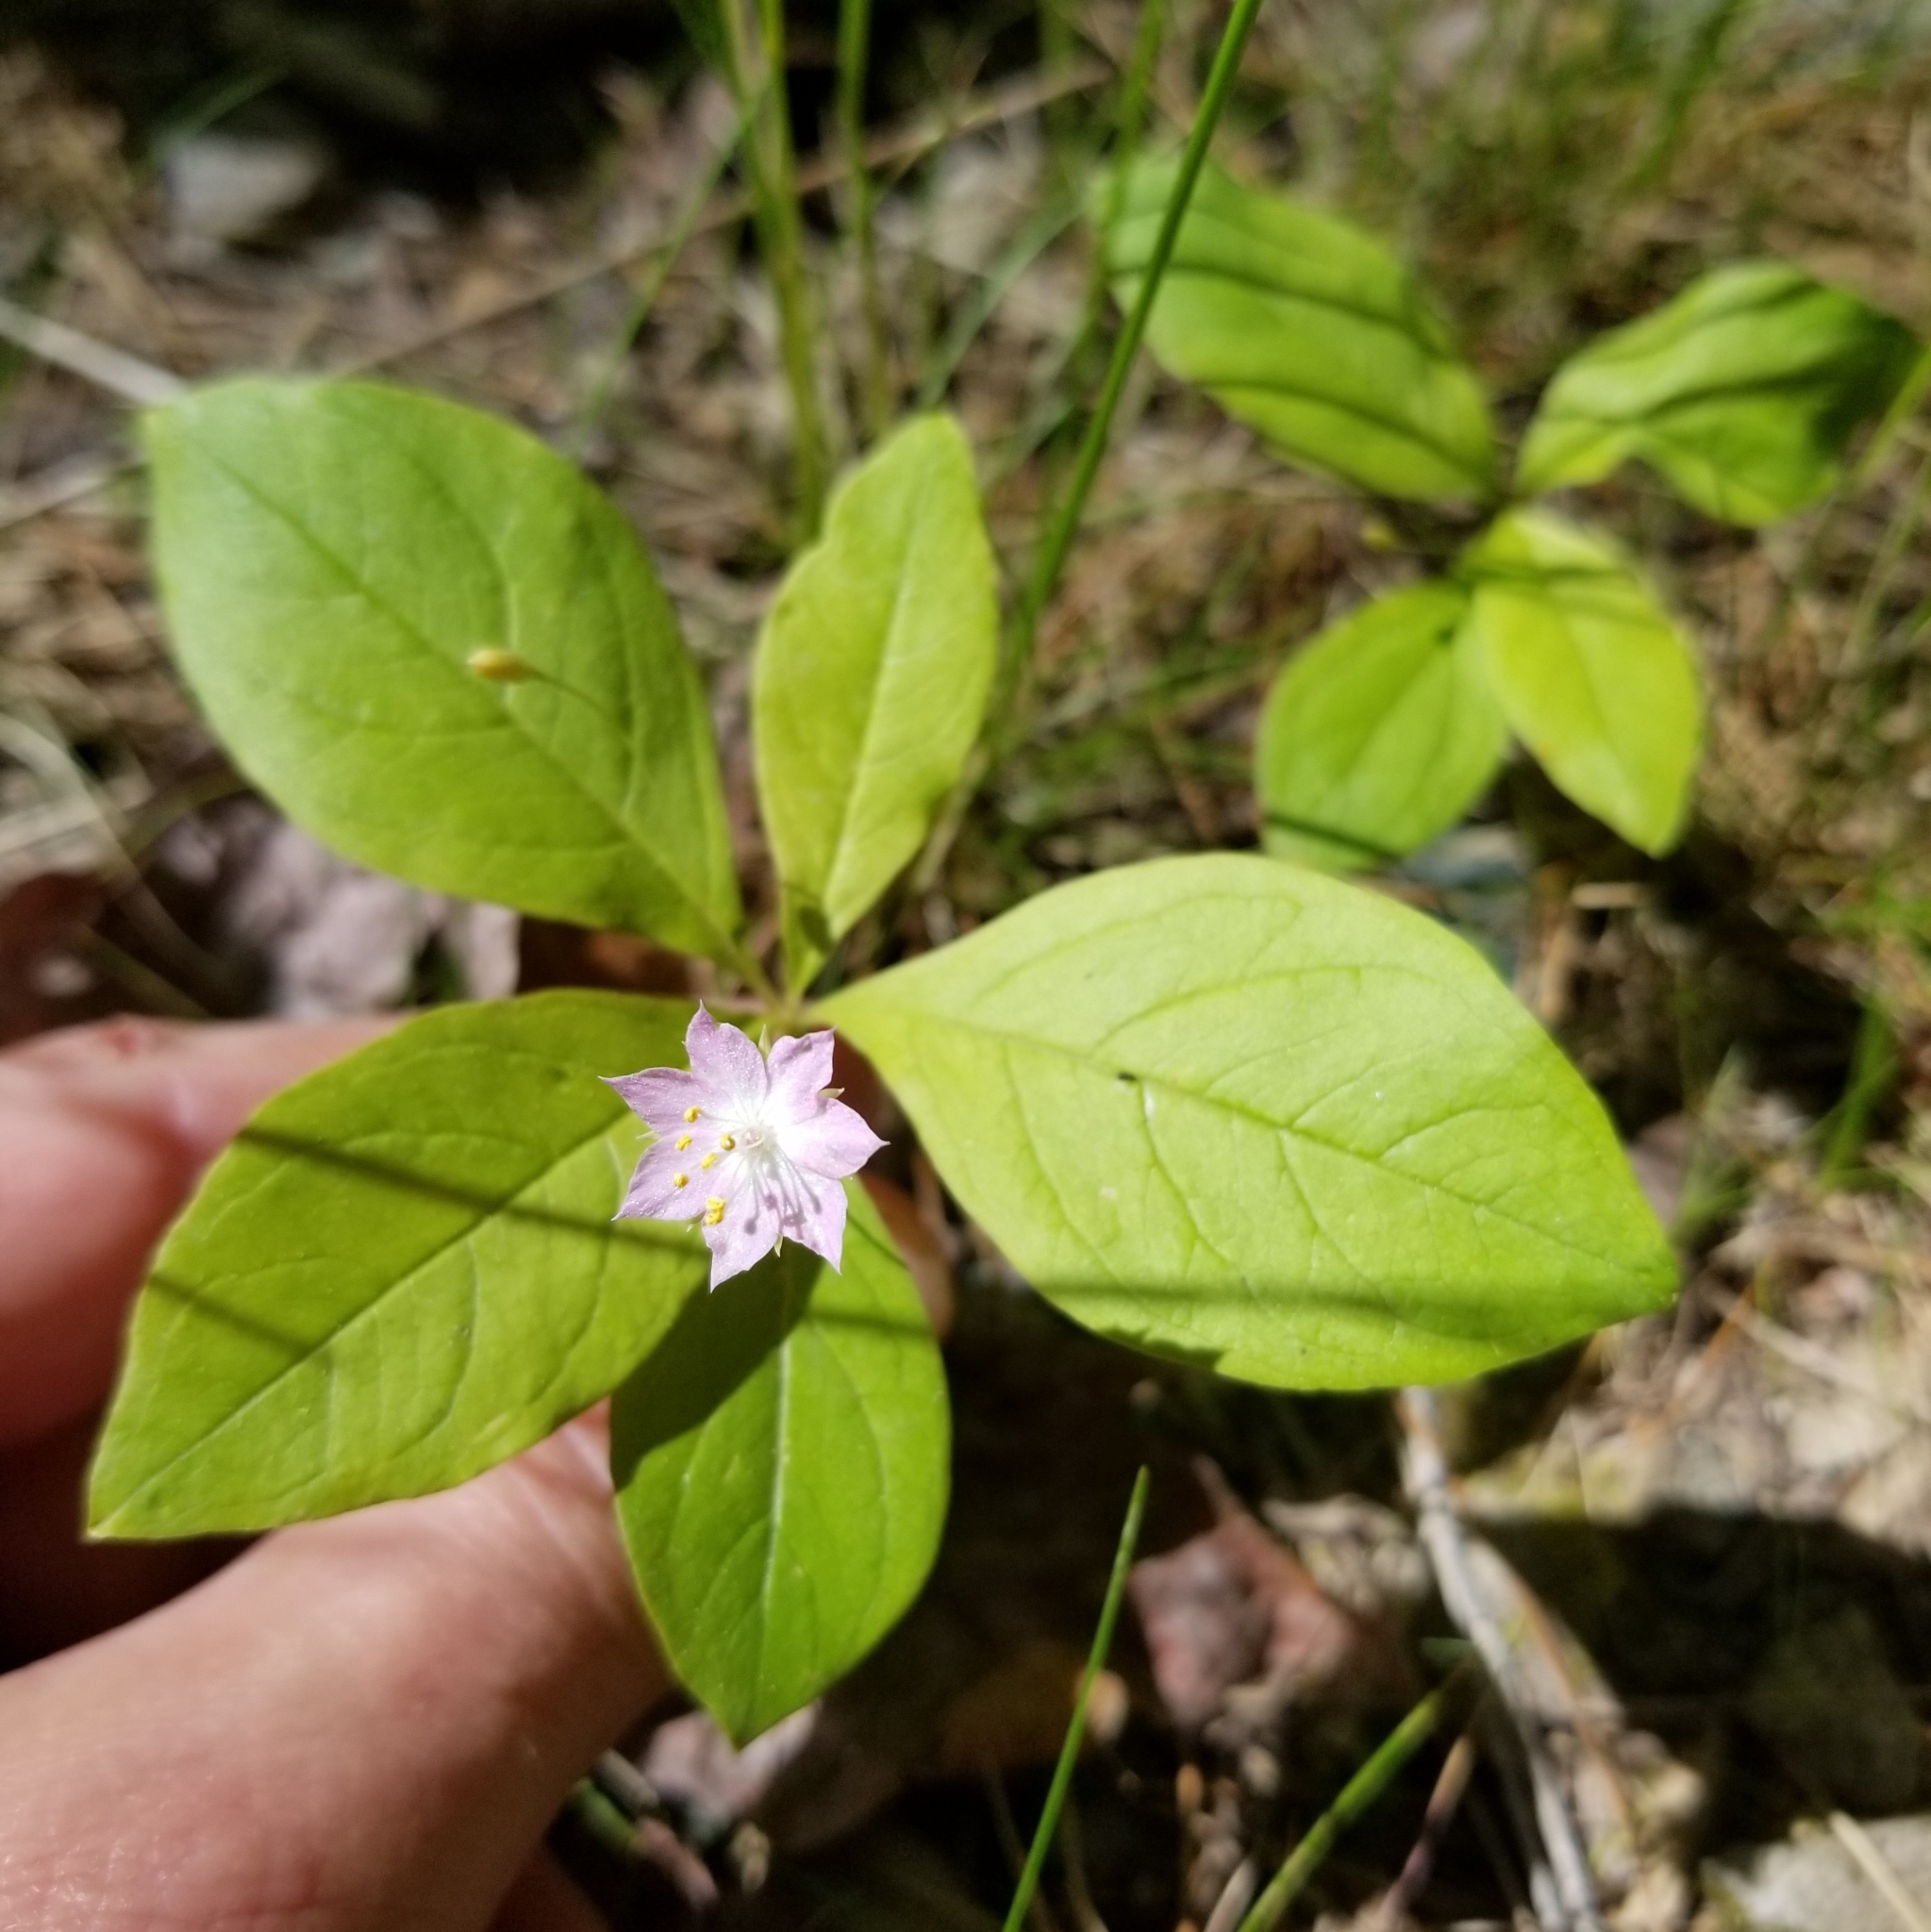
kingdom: Plantae
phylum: Tracheophyta
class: Magnoliopsida
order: Ericales
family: Primulaceae
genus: Lysimachia
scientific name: Lysimachia latifolia
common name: Pacific starflower
